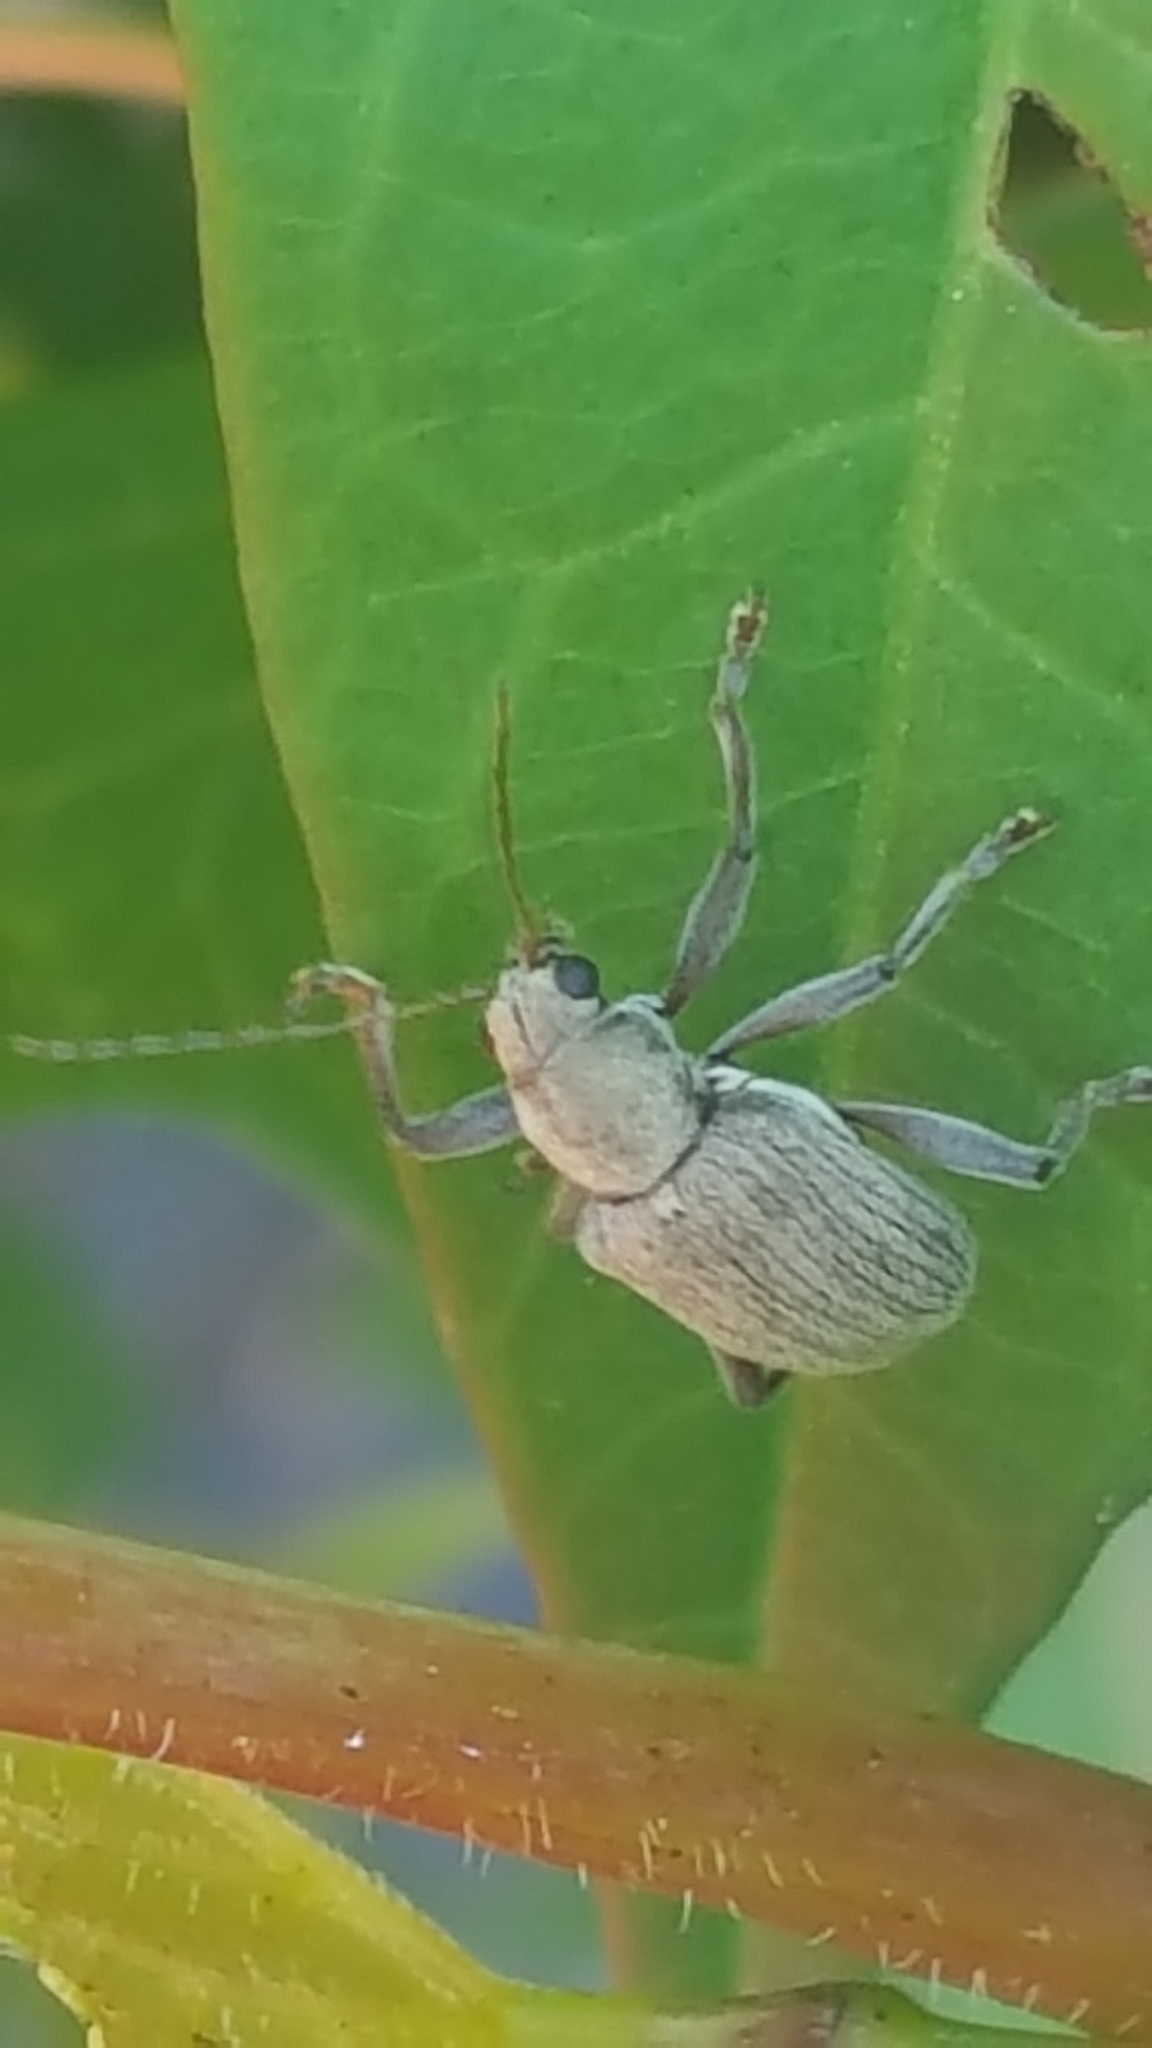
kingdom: Animalia
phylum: Arthropoda
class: Insecta
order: Coleoptera
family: Chrysomelidae
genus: Neofidia
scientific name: Neofidia
